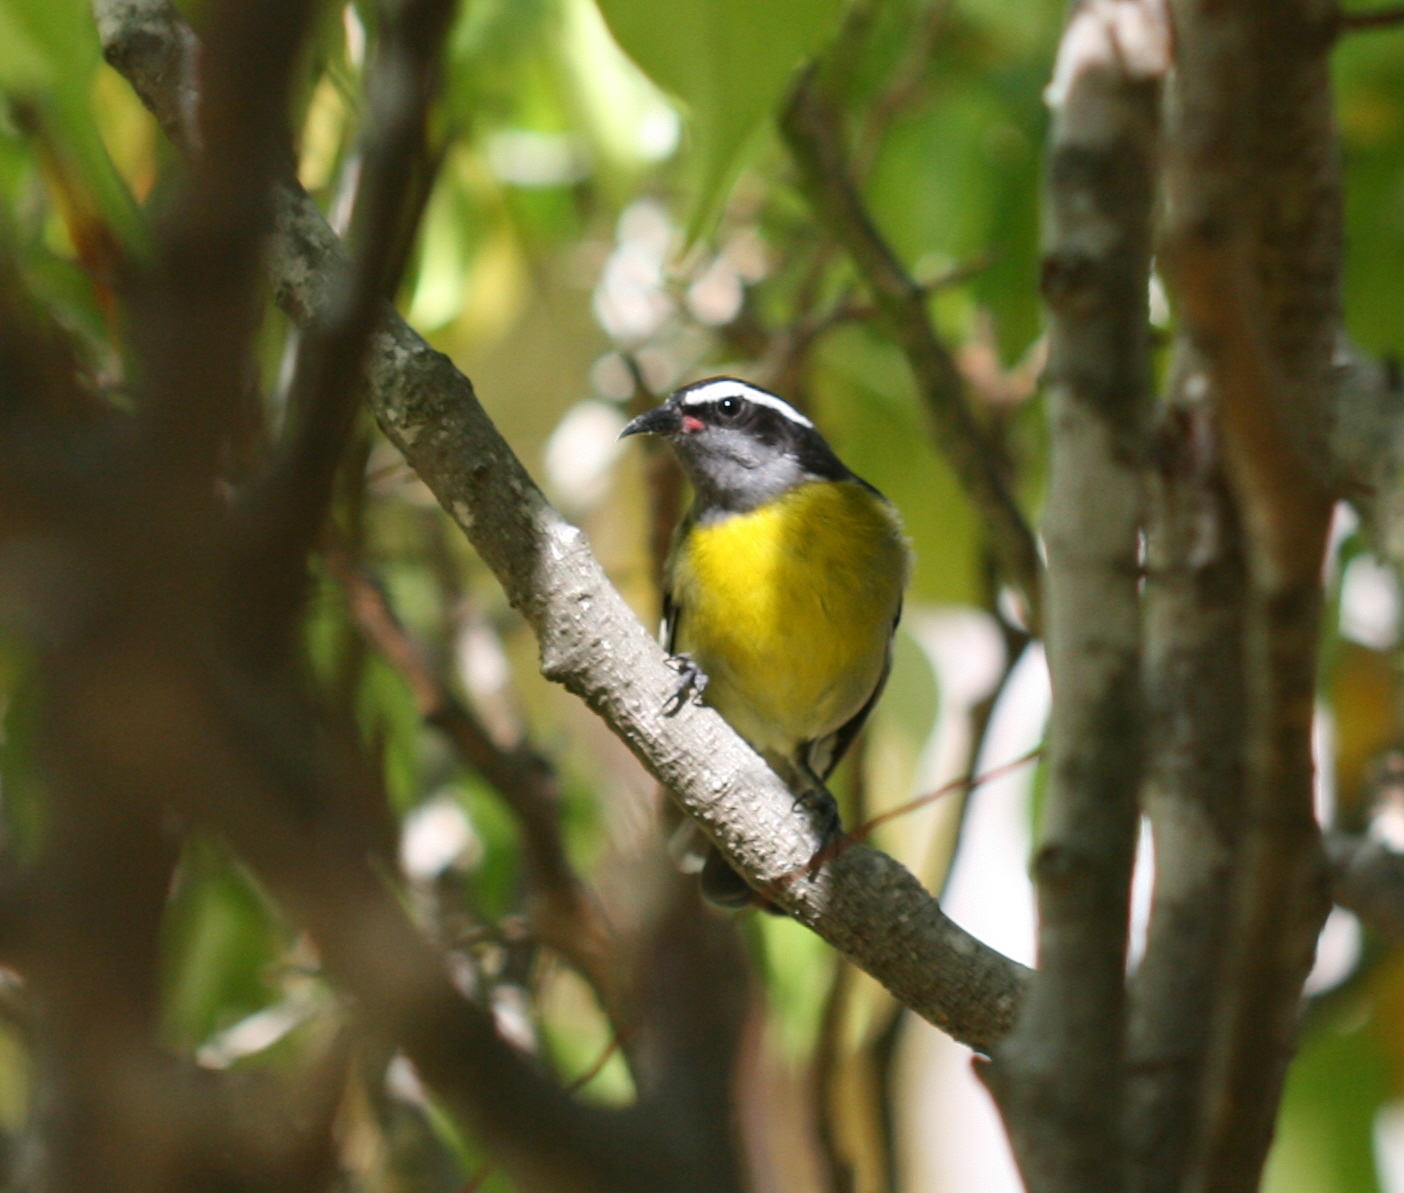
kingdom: Animalia
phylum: Chordata
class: Aves
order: Passeriformes
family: Thraupidae
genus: Coereba
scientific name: Coereba flaveola
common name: Bananaquit
